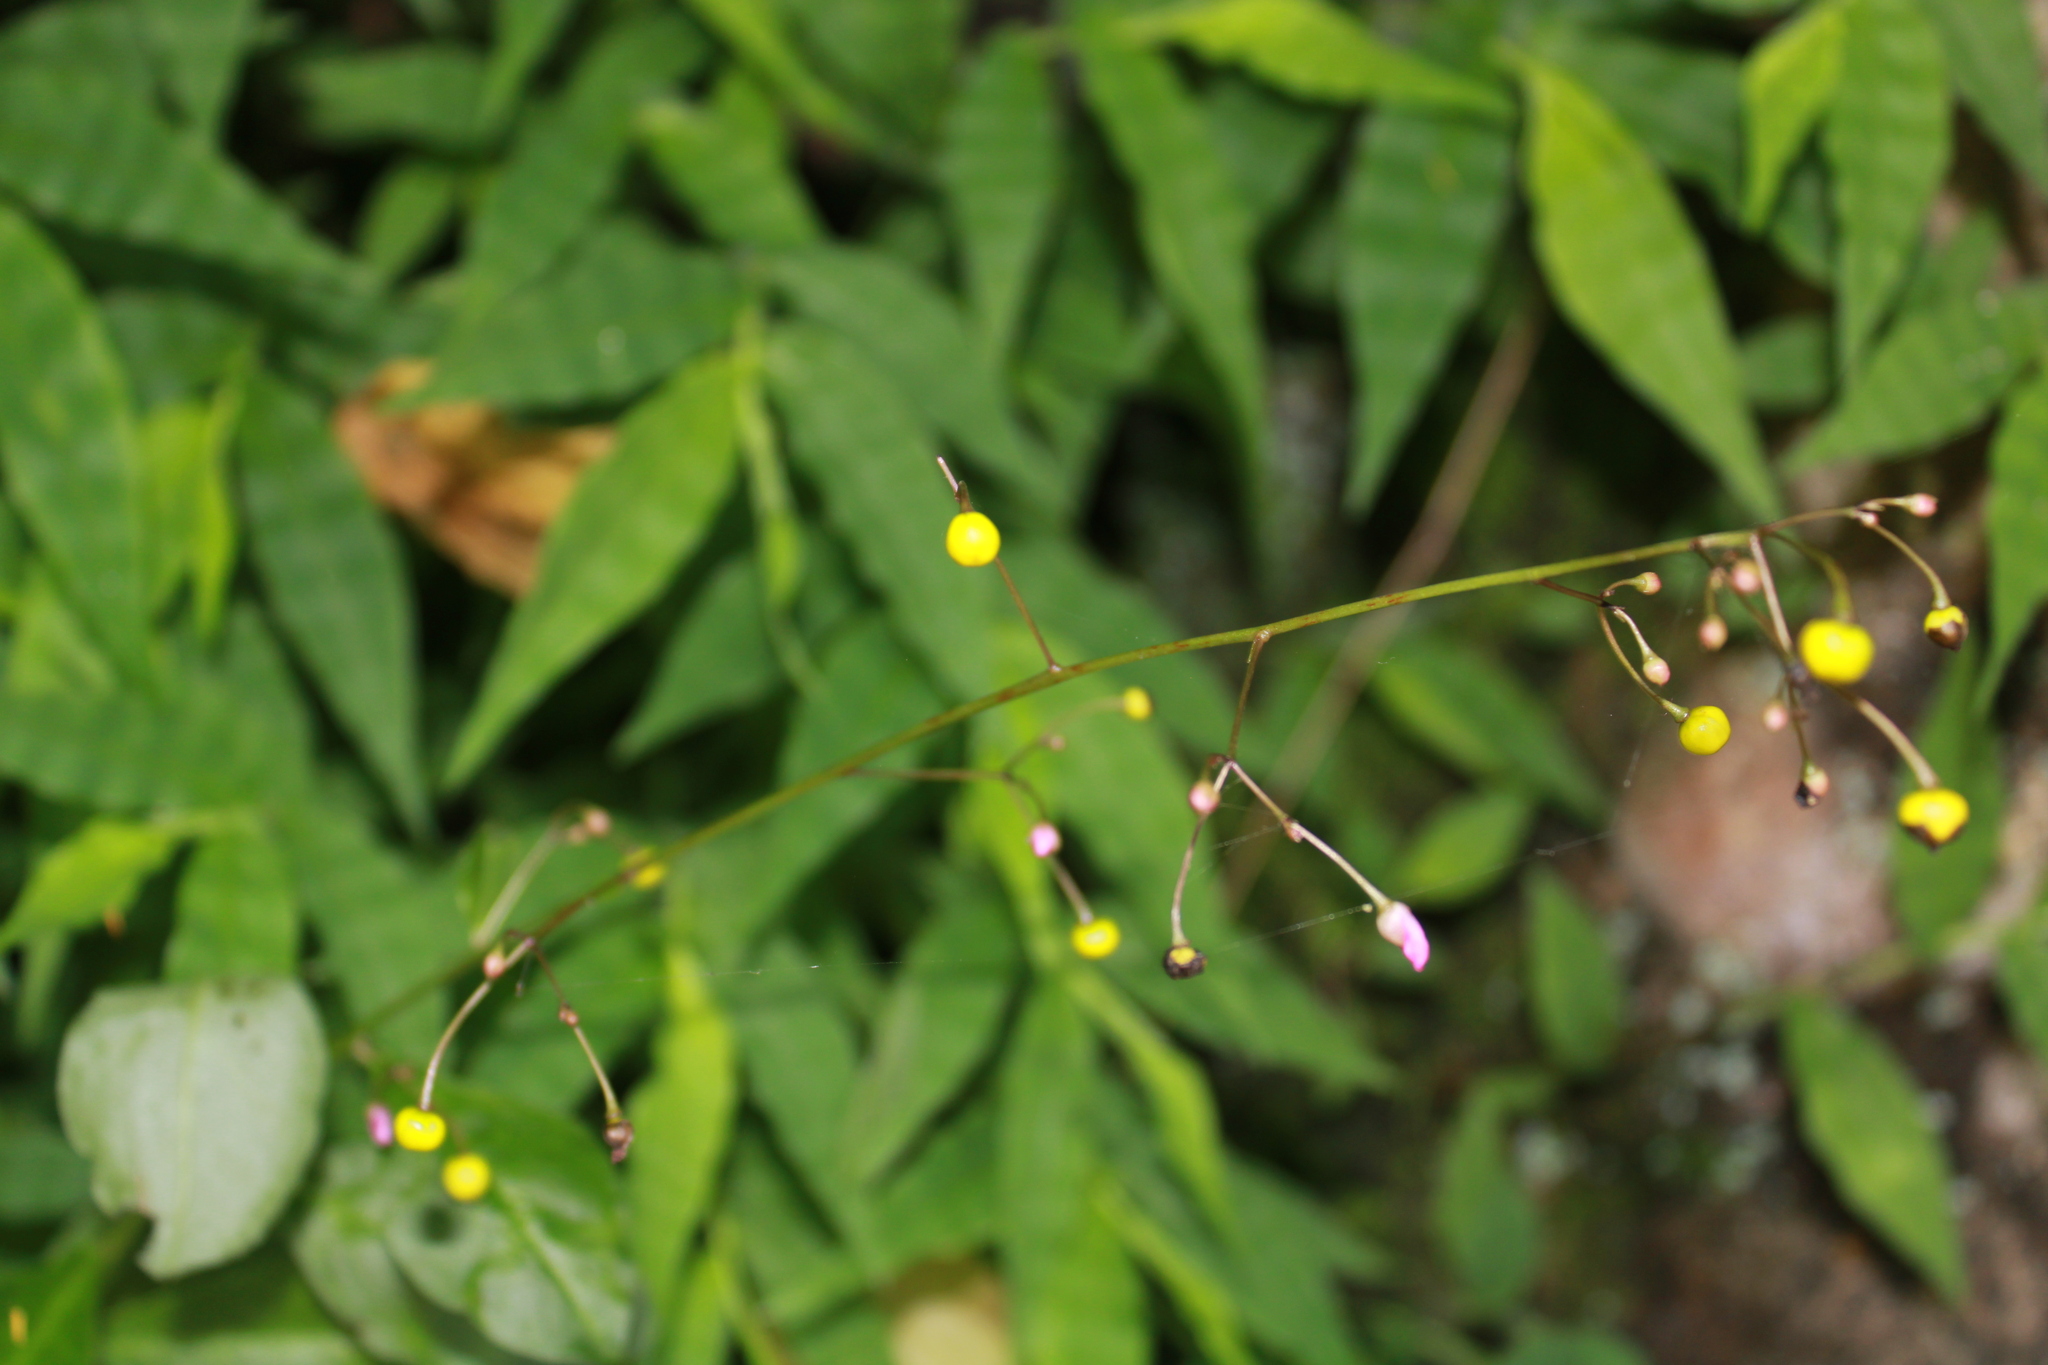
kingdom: Plantae
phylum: Tracheophyta
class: Magnoliopsida
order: Caryophyllales
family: Talinaceae
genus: Talinum
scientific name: Talinum paniculatum
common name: Jewels of opar
